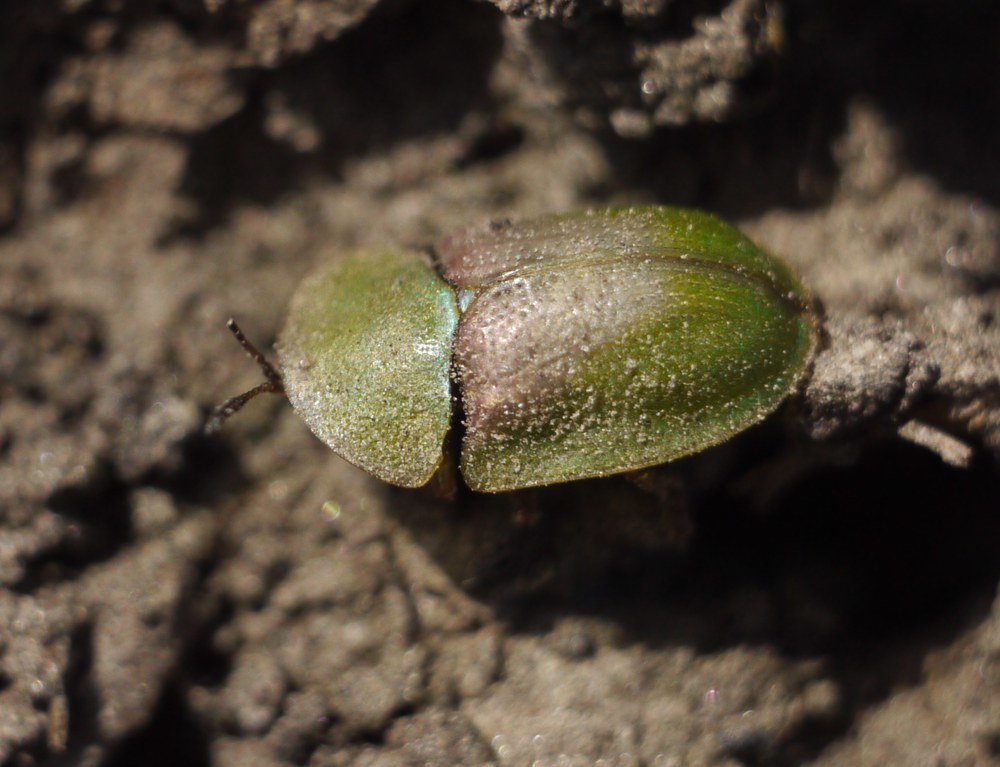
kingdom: Animalia
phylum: Arthropoda
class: Insecta
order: Coleoptera
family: Chrysomelidae
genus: Cassida
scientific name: Cassida rufovirens
